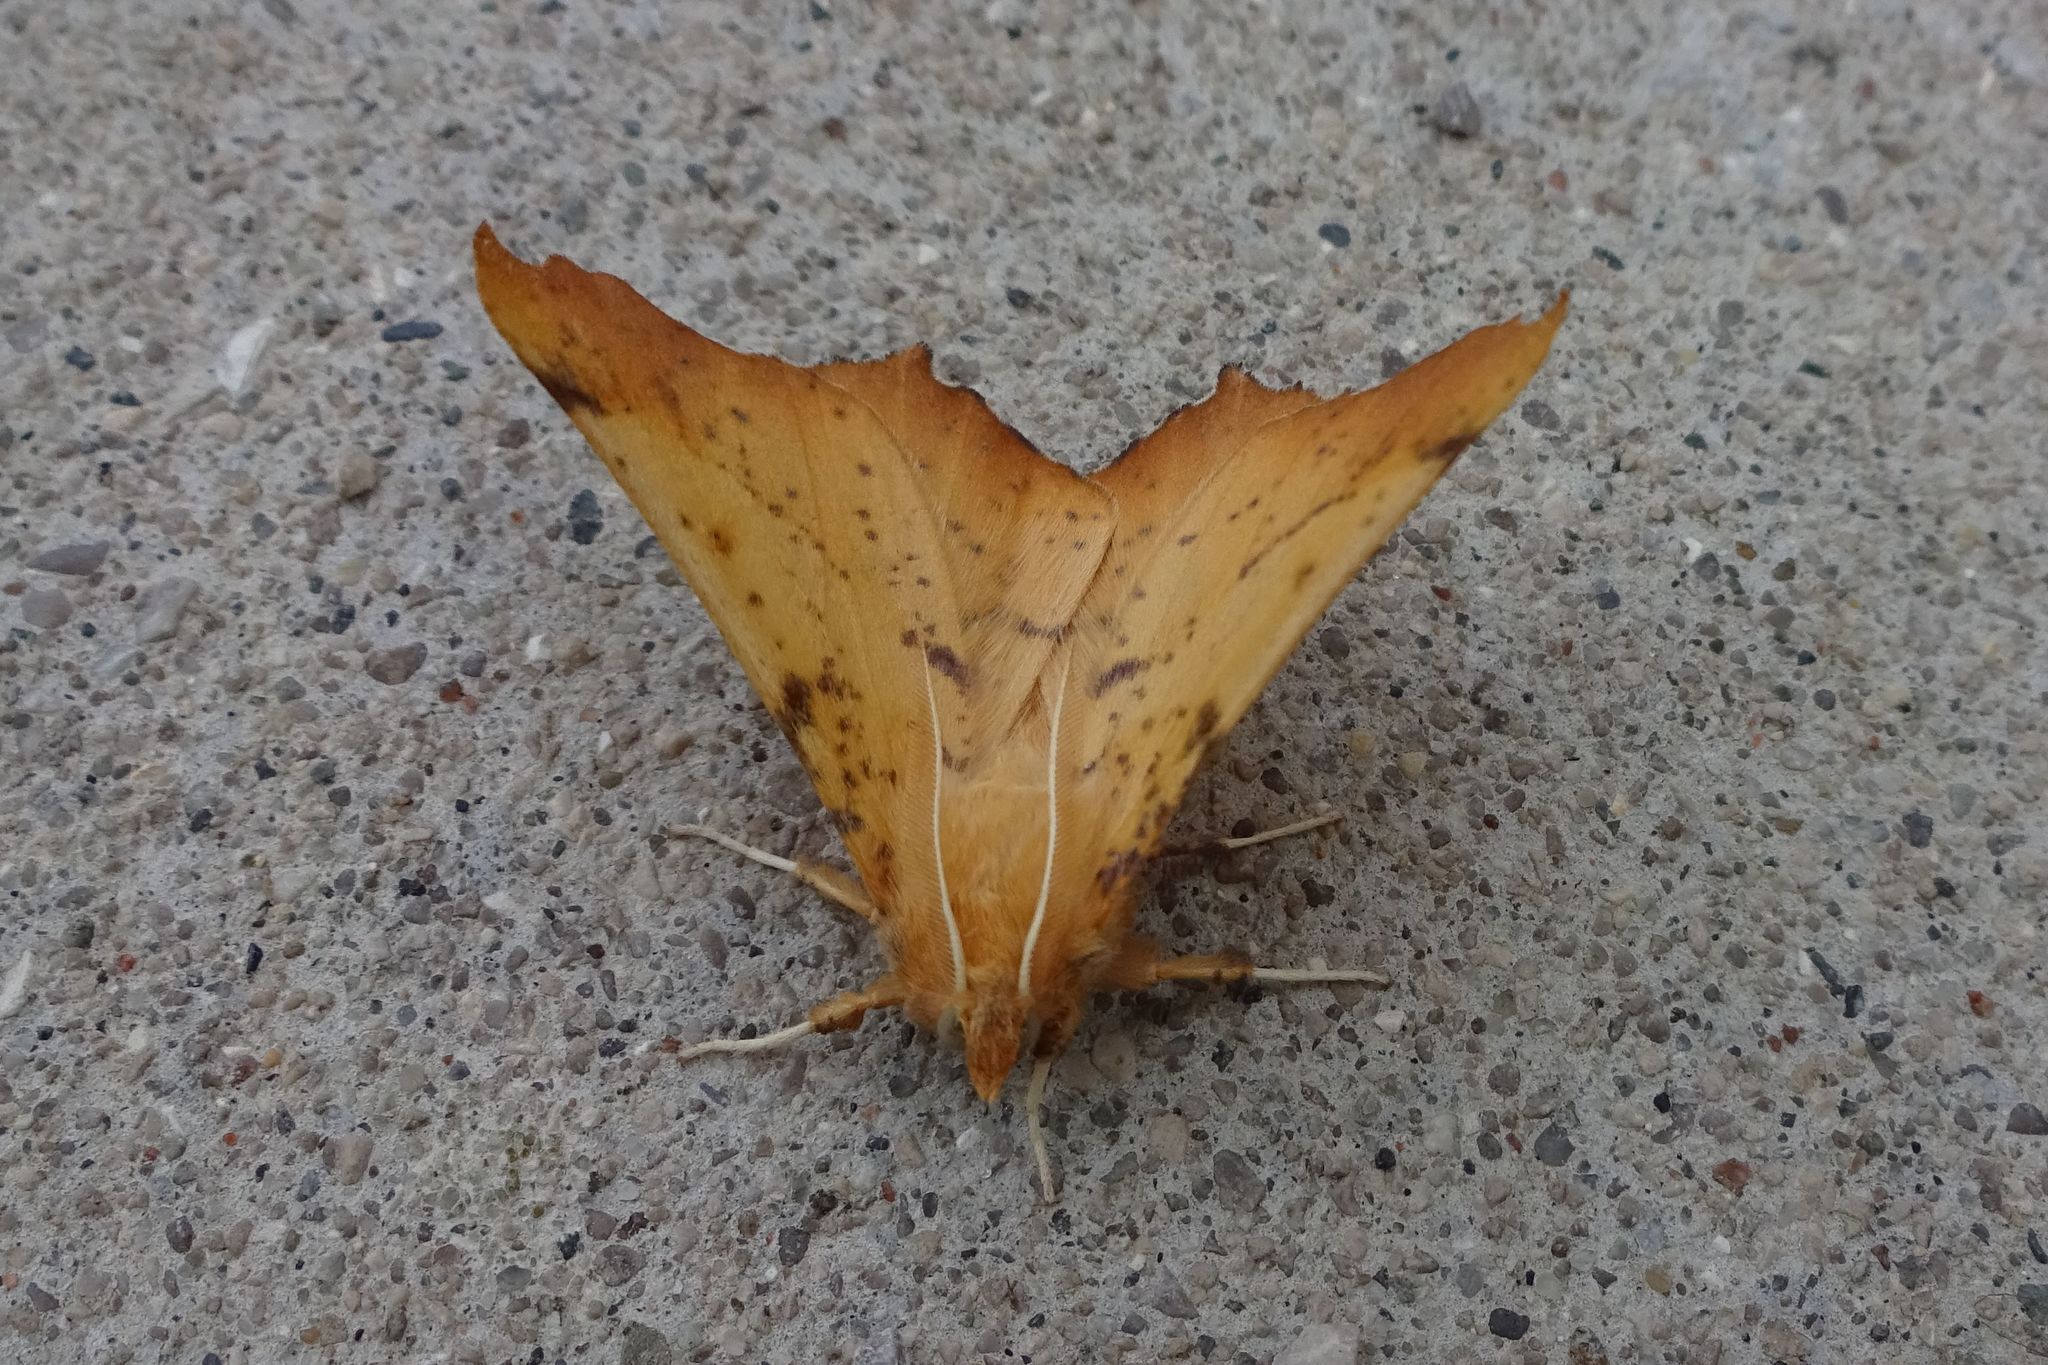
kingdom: Animalia
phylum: Arthropoda
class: Insecta
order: Lepidoptera
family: Geometridae
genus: Ennomos
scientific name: Ennomos magnaria
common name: Maple spanworm
